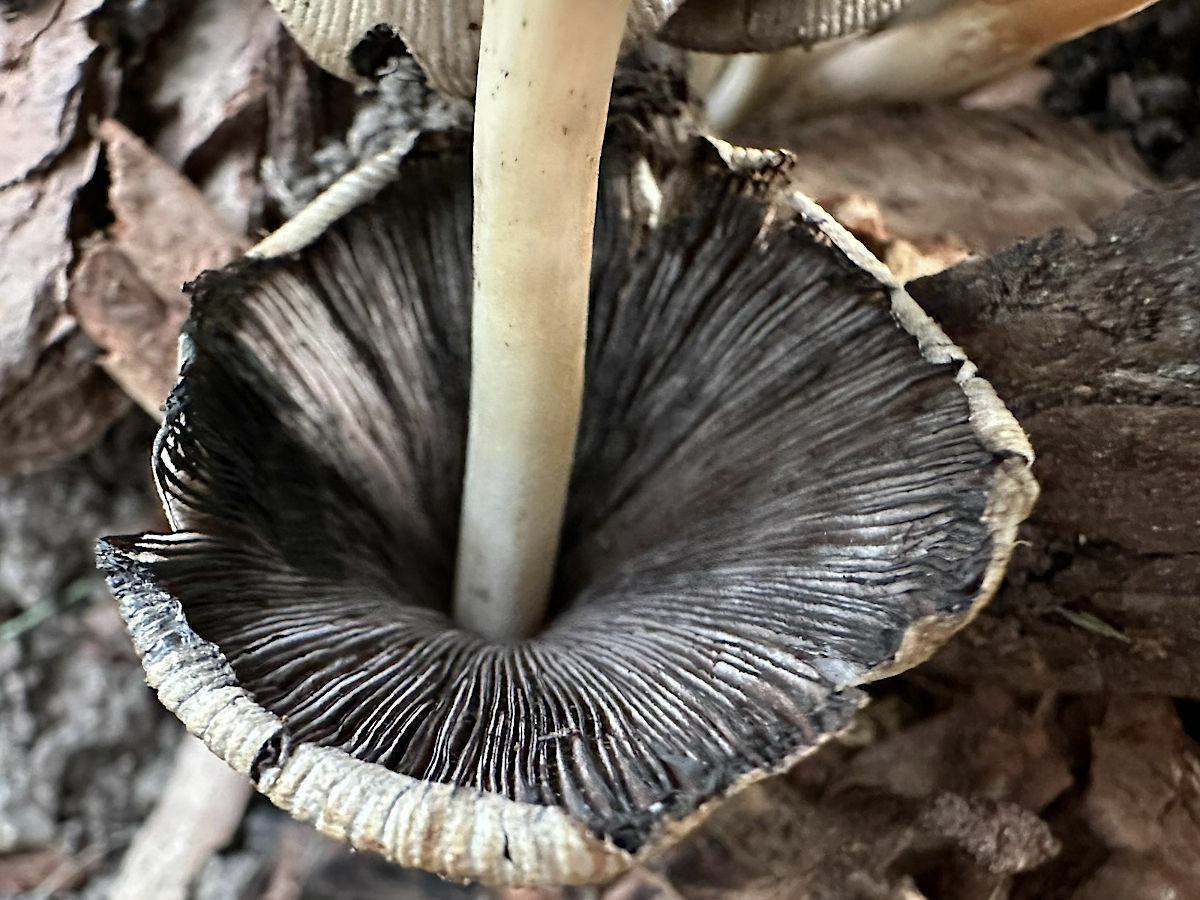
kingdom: Fungi
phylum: Basidiomycota
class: Agaricomycetes
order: Agaricales
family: Psathyrellaceae
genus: Coprinopsis
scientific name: Coprinopsis atramentaria
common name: Common ink-cap
